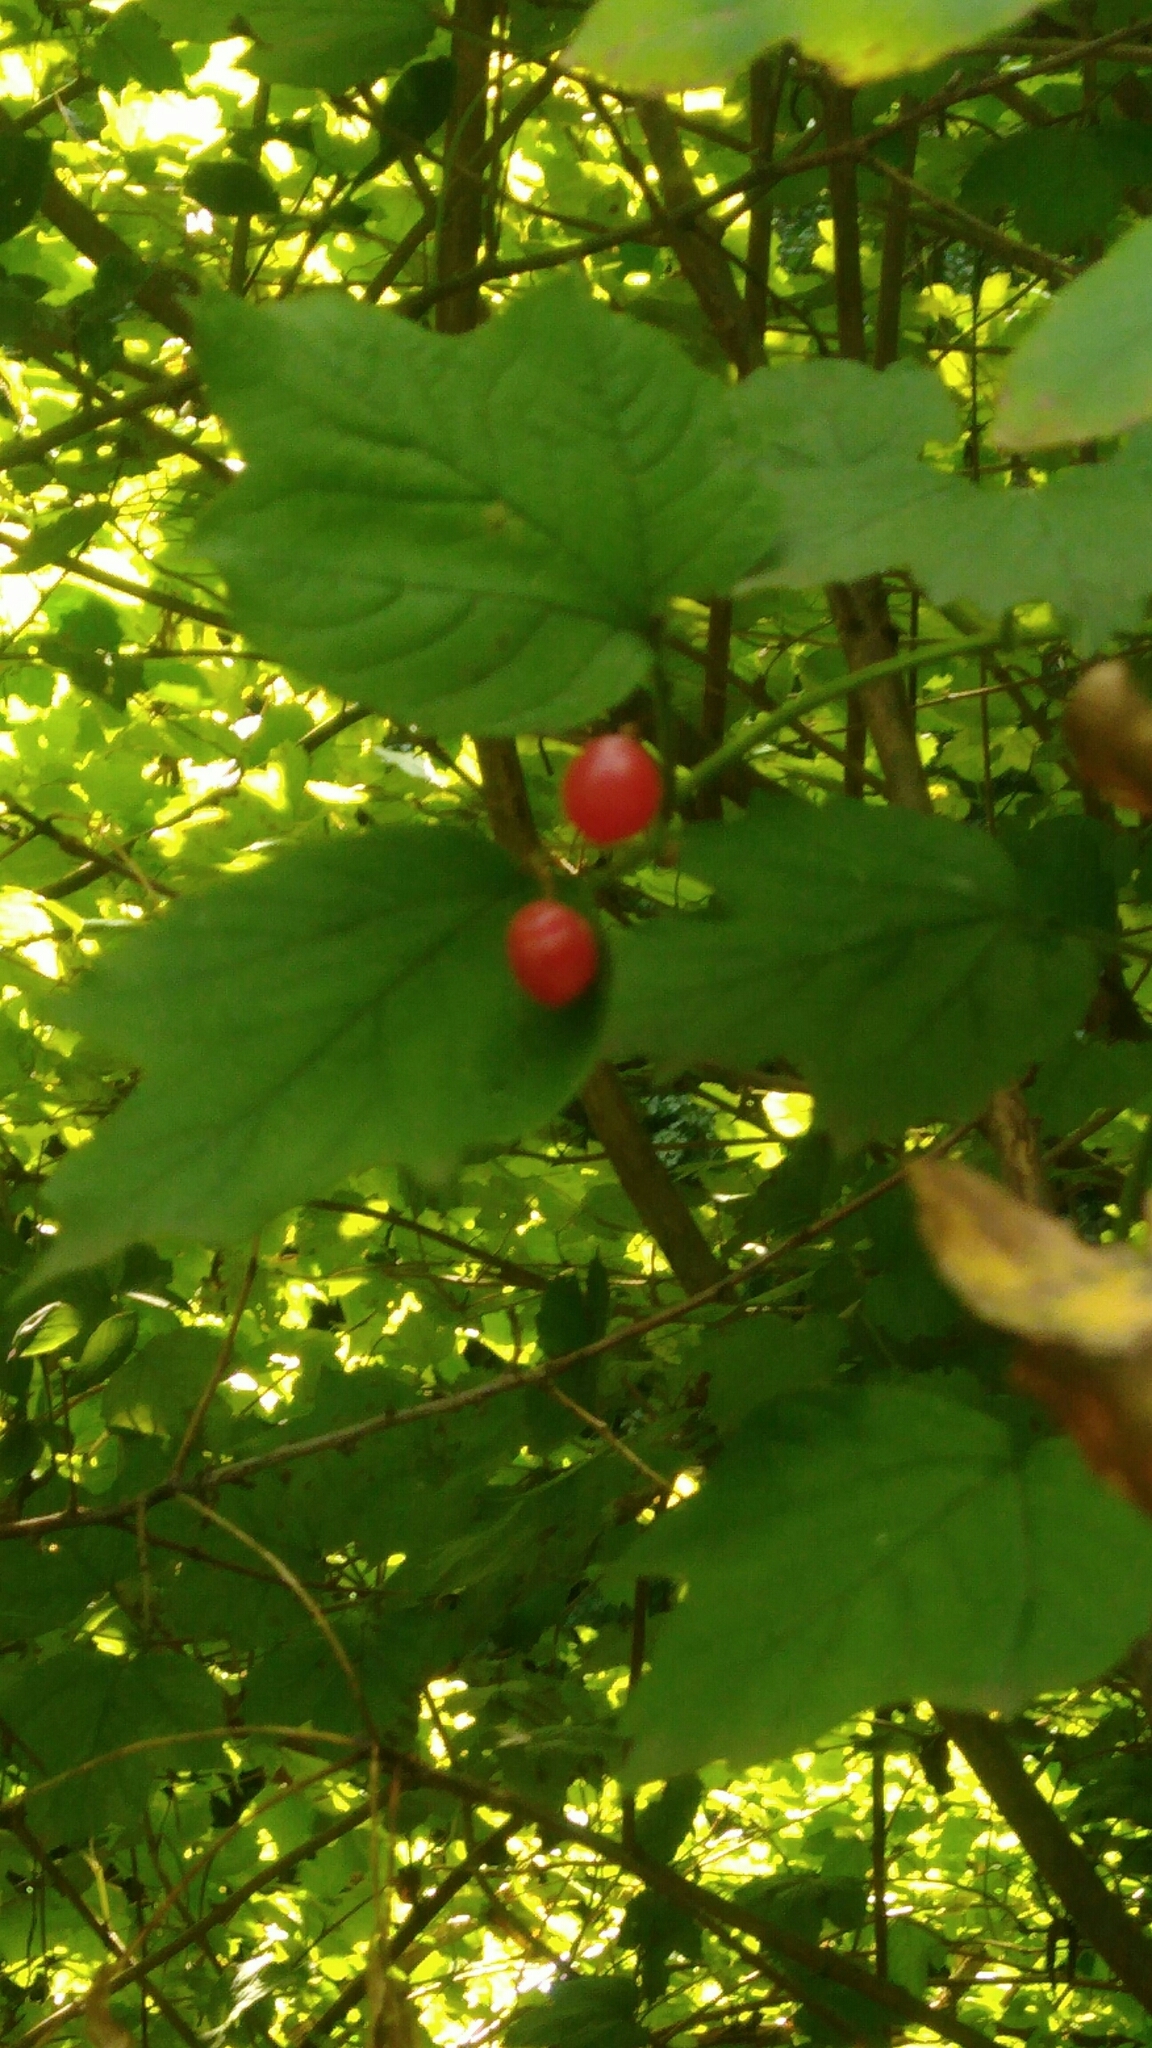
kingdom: Plantae
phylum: Tracheophyta
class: Magnoliopsida
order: Dipsacales
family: Viburnaceae
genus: Viburnum
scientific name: Viburnum opulus
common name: Guelder-rose
